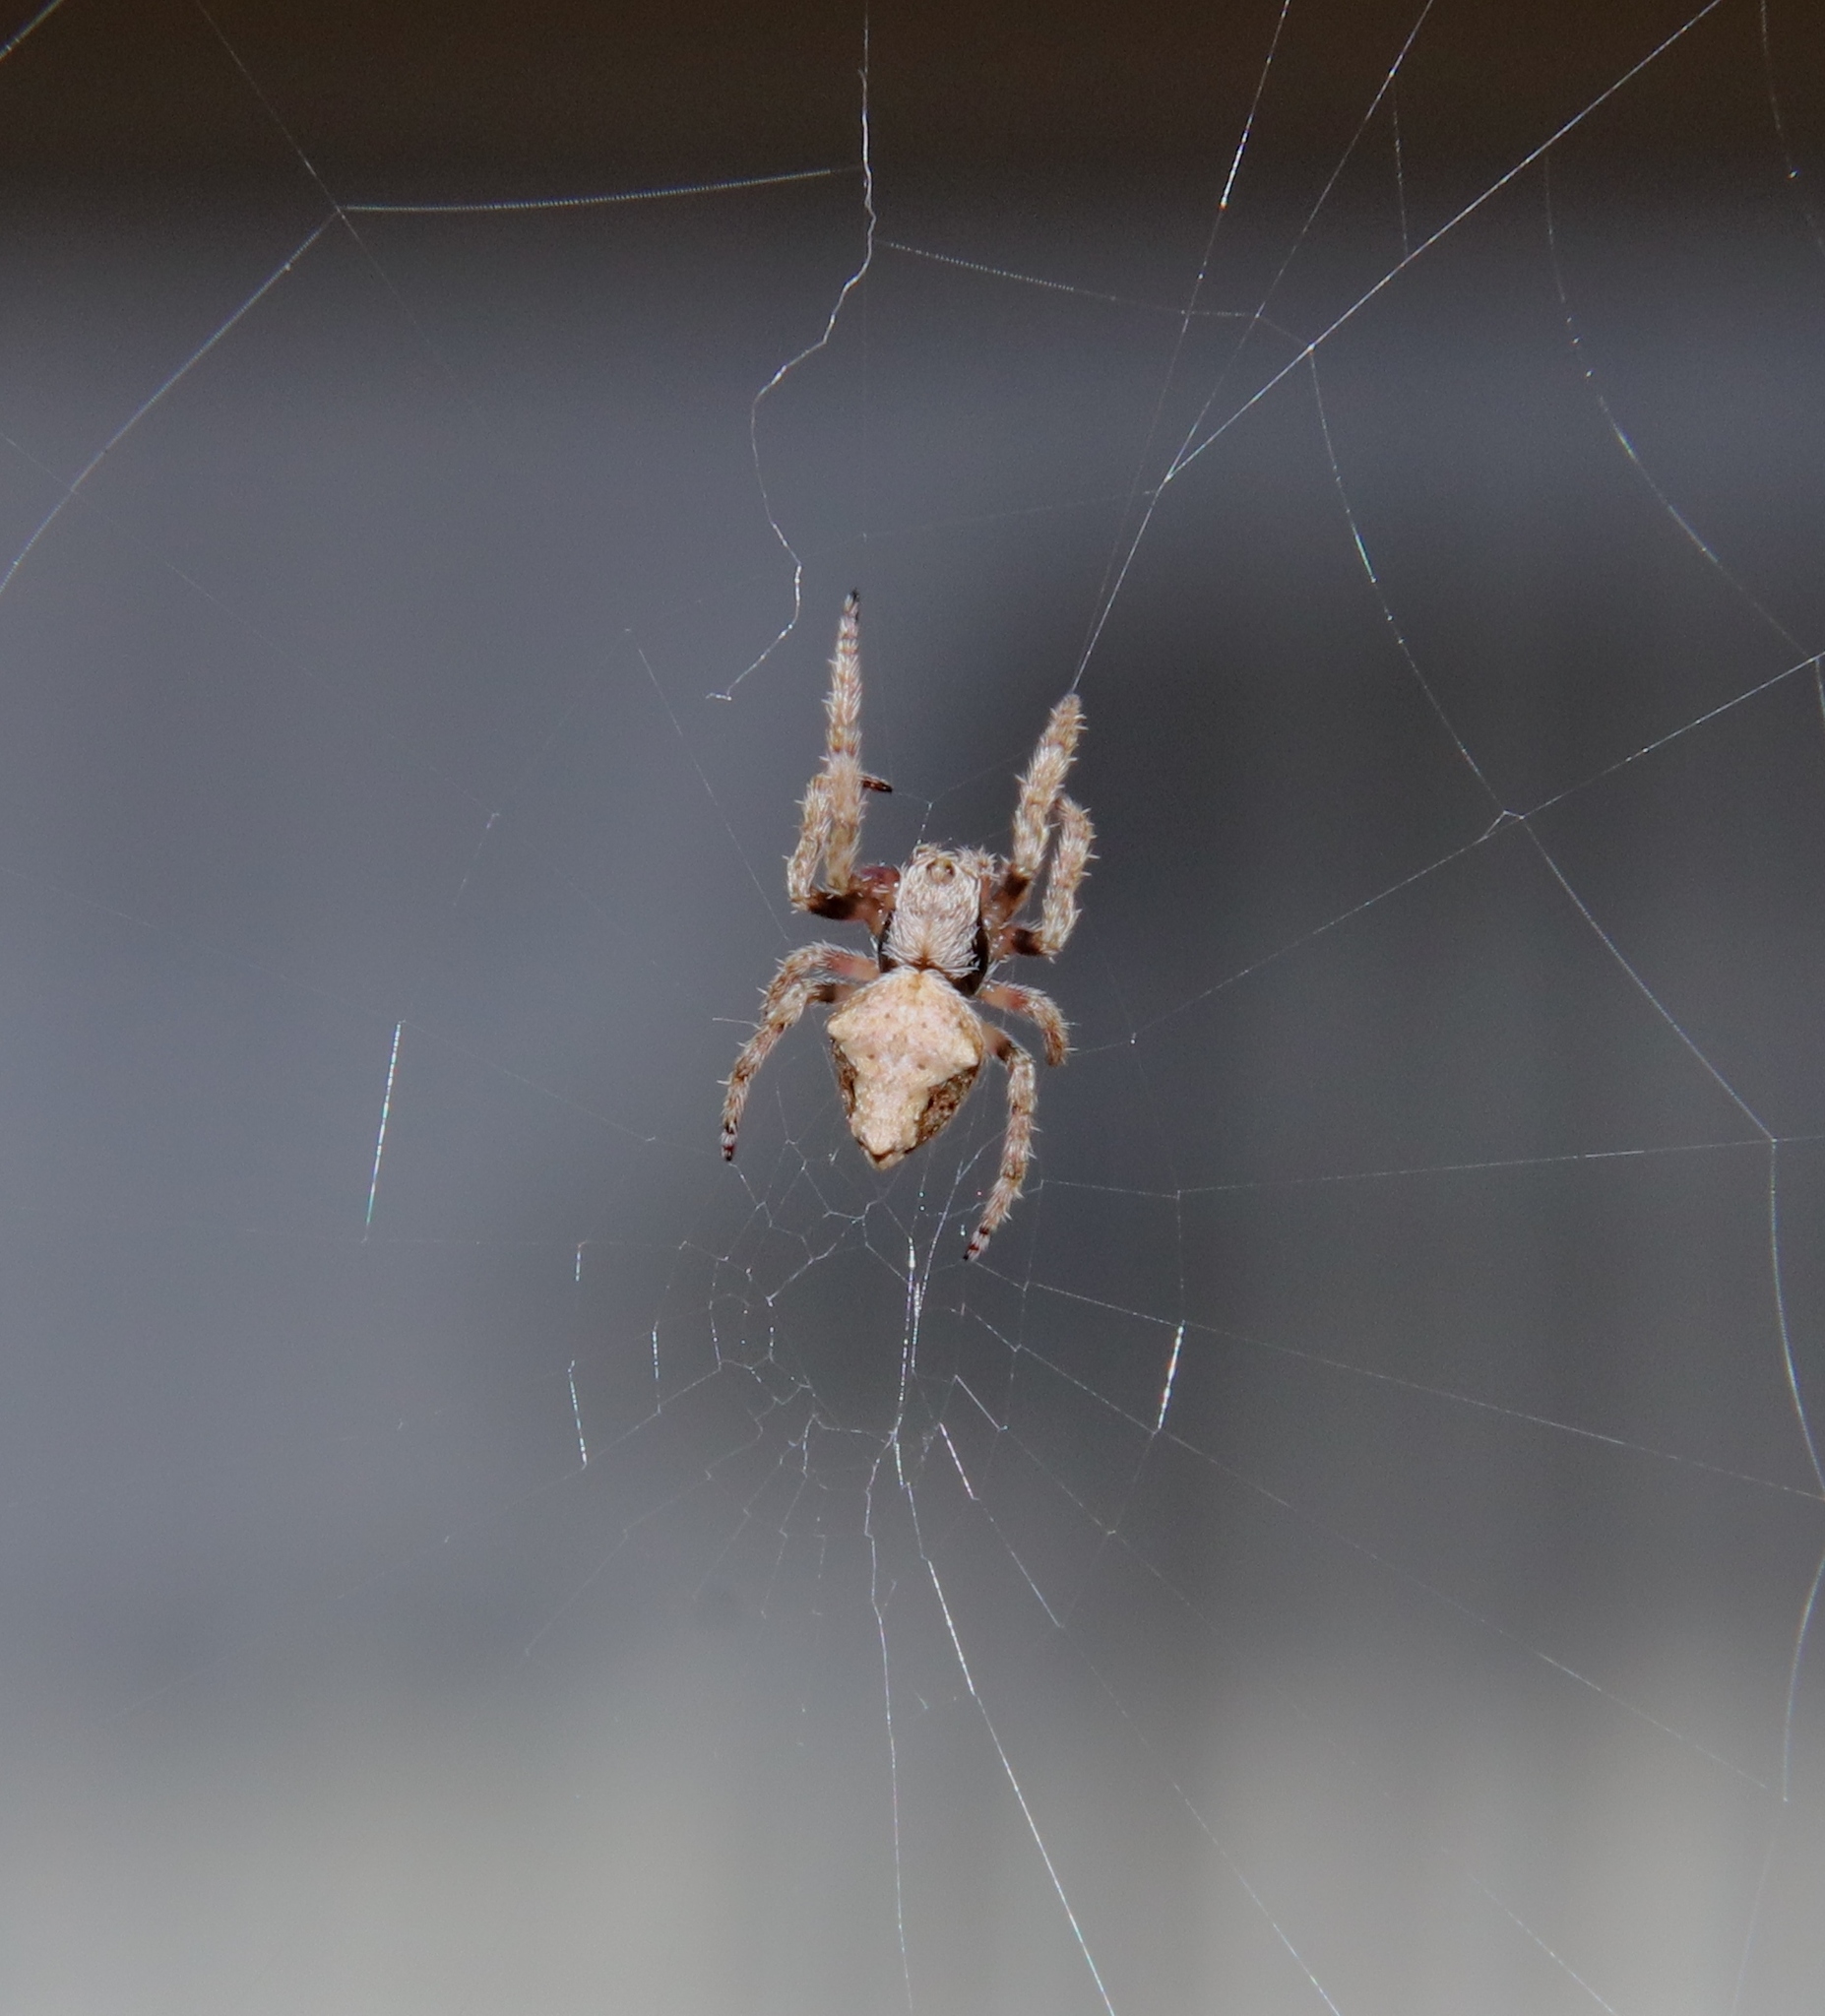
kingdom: Animalia
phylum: Arthropoda
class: Arachnida
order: Araneae
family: Araneidae
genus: Eriophora
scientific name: Eriophora pustulosa
